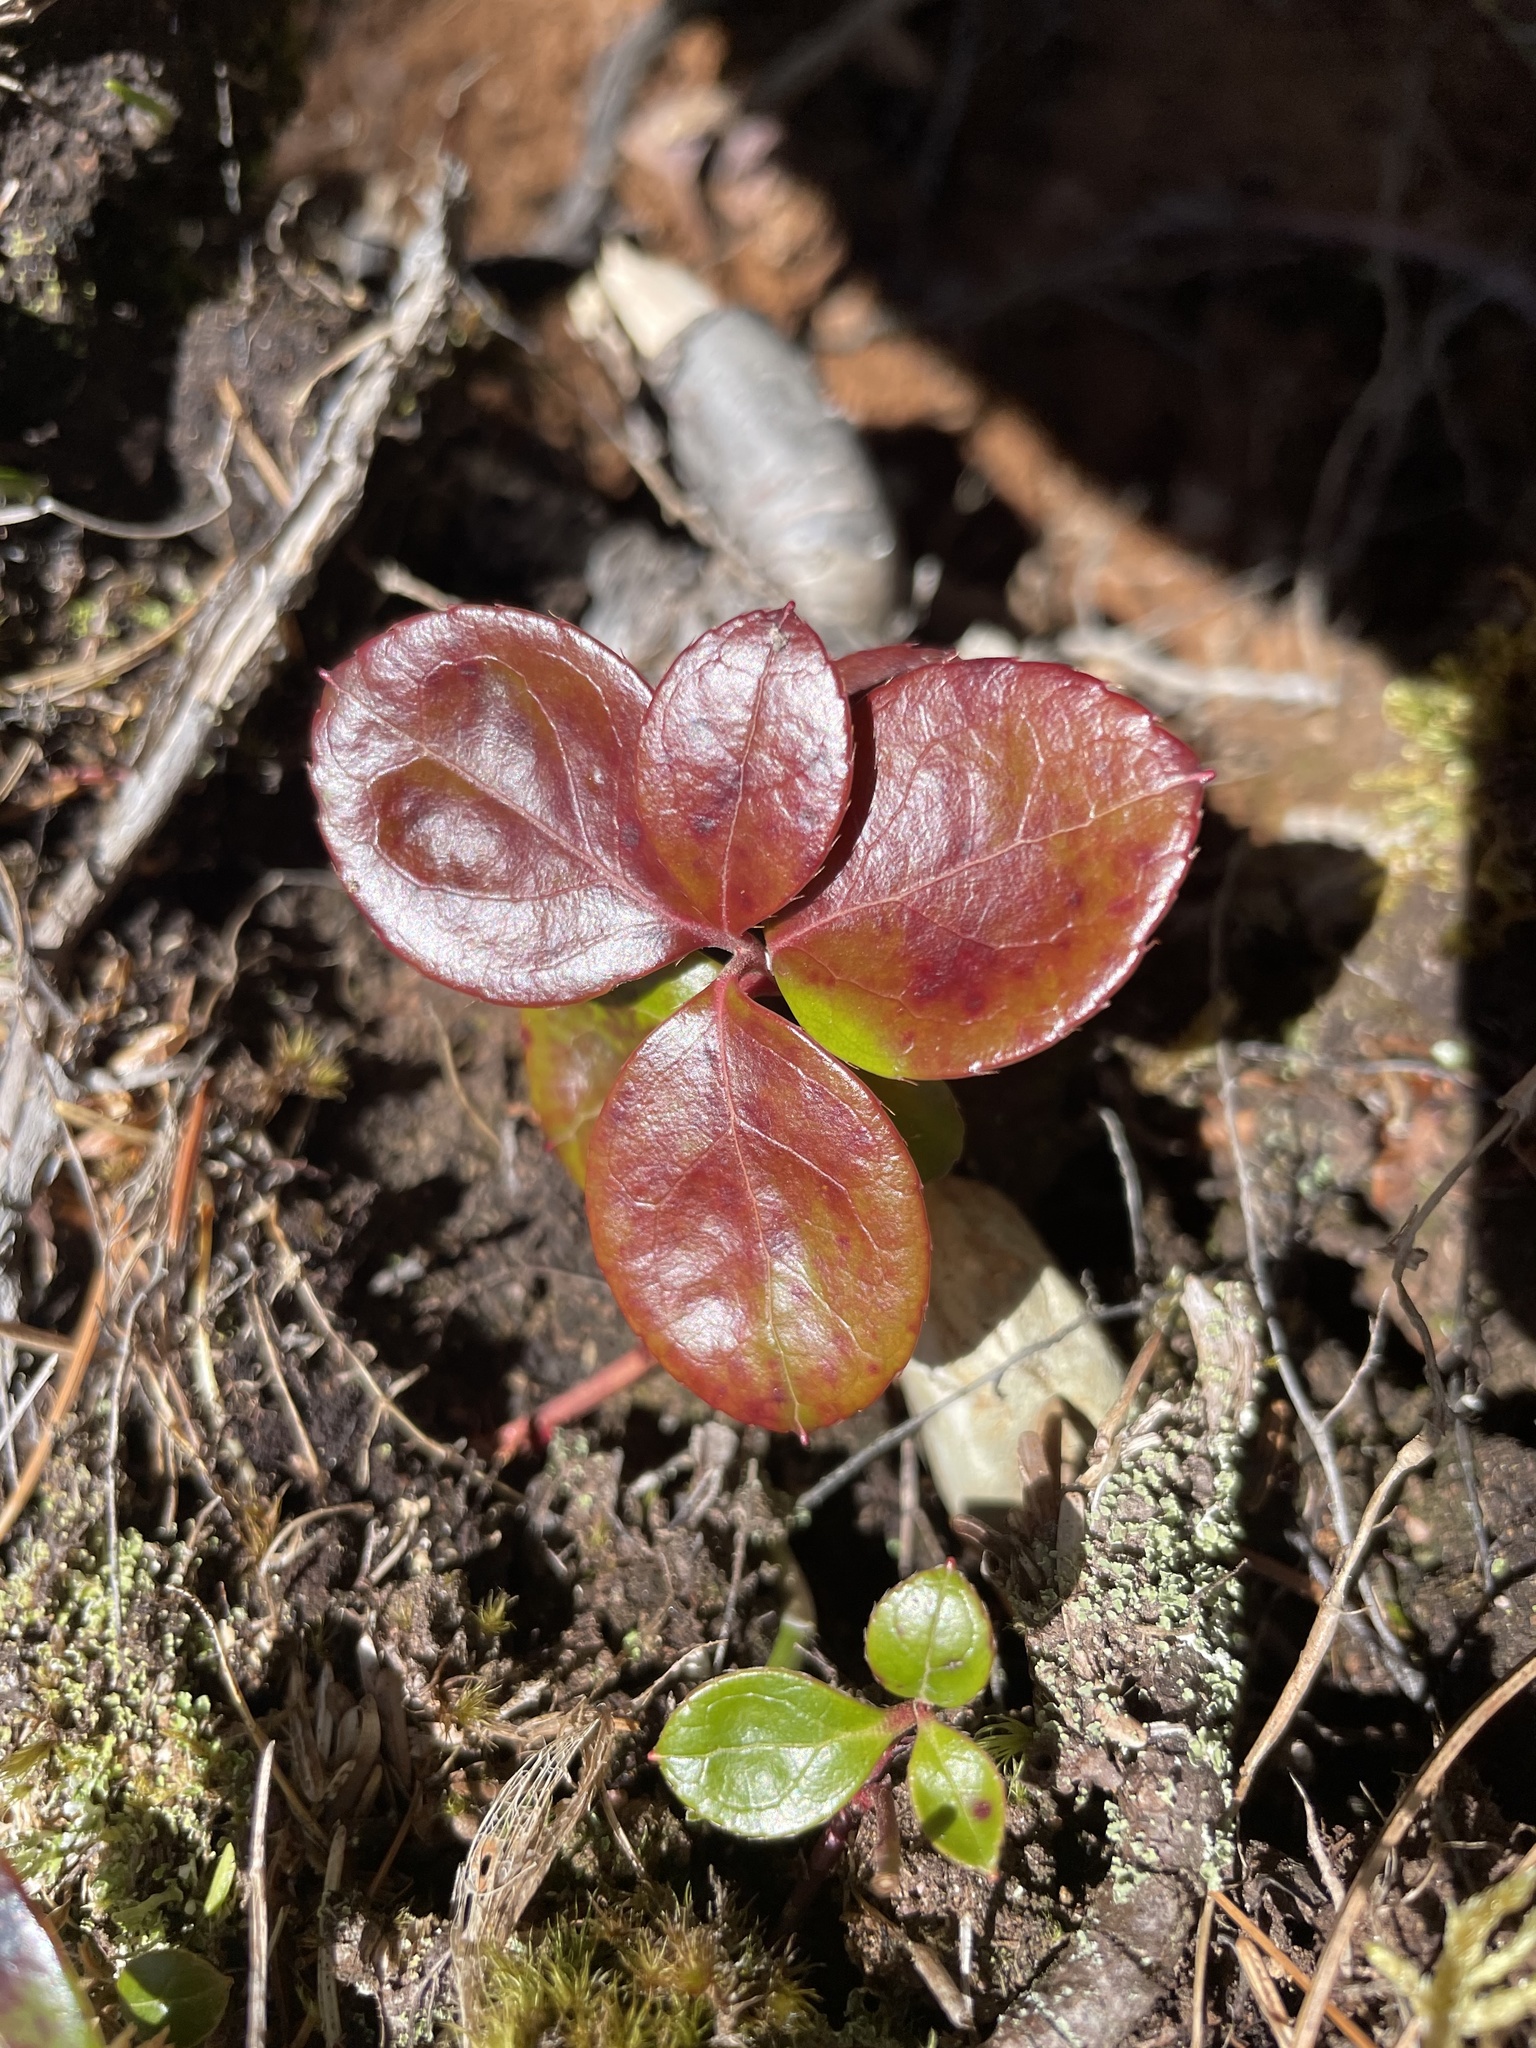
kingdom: Plantae
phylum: Tracheophyta
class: Magnoliopsida
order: Ericales
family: Ericaceae
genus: Gaultheria
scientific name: Gaultheria procumbens
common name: Checkerberry
